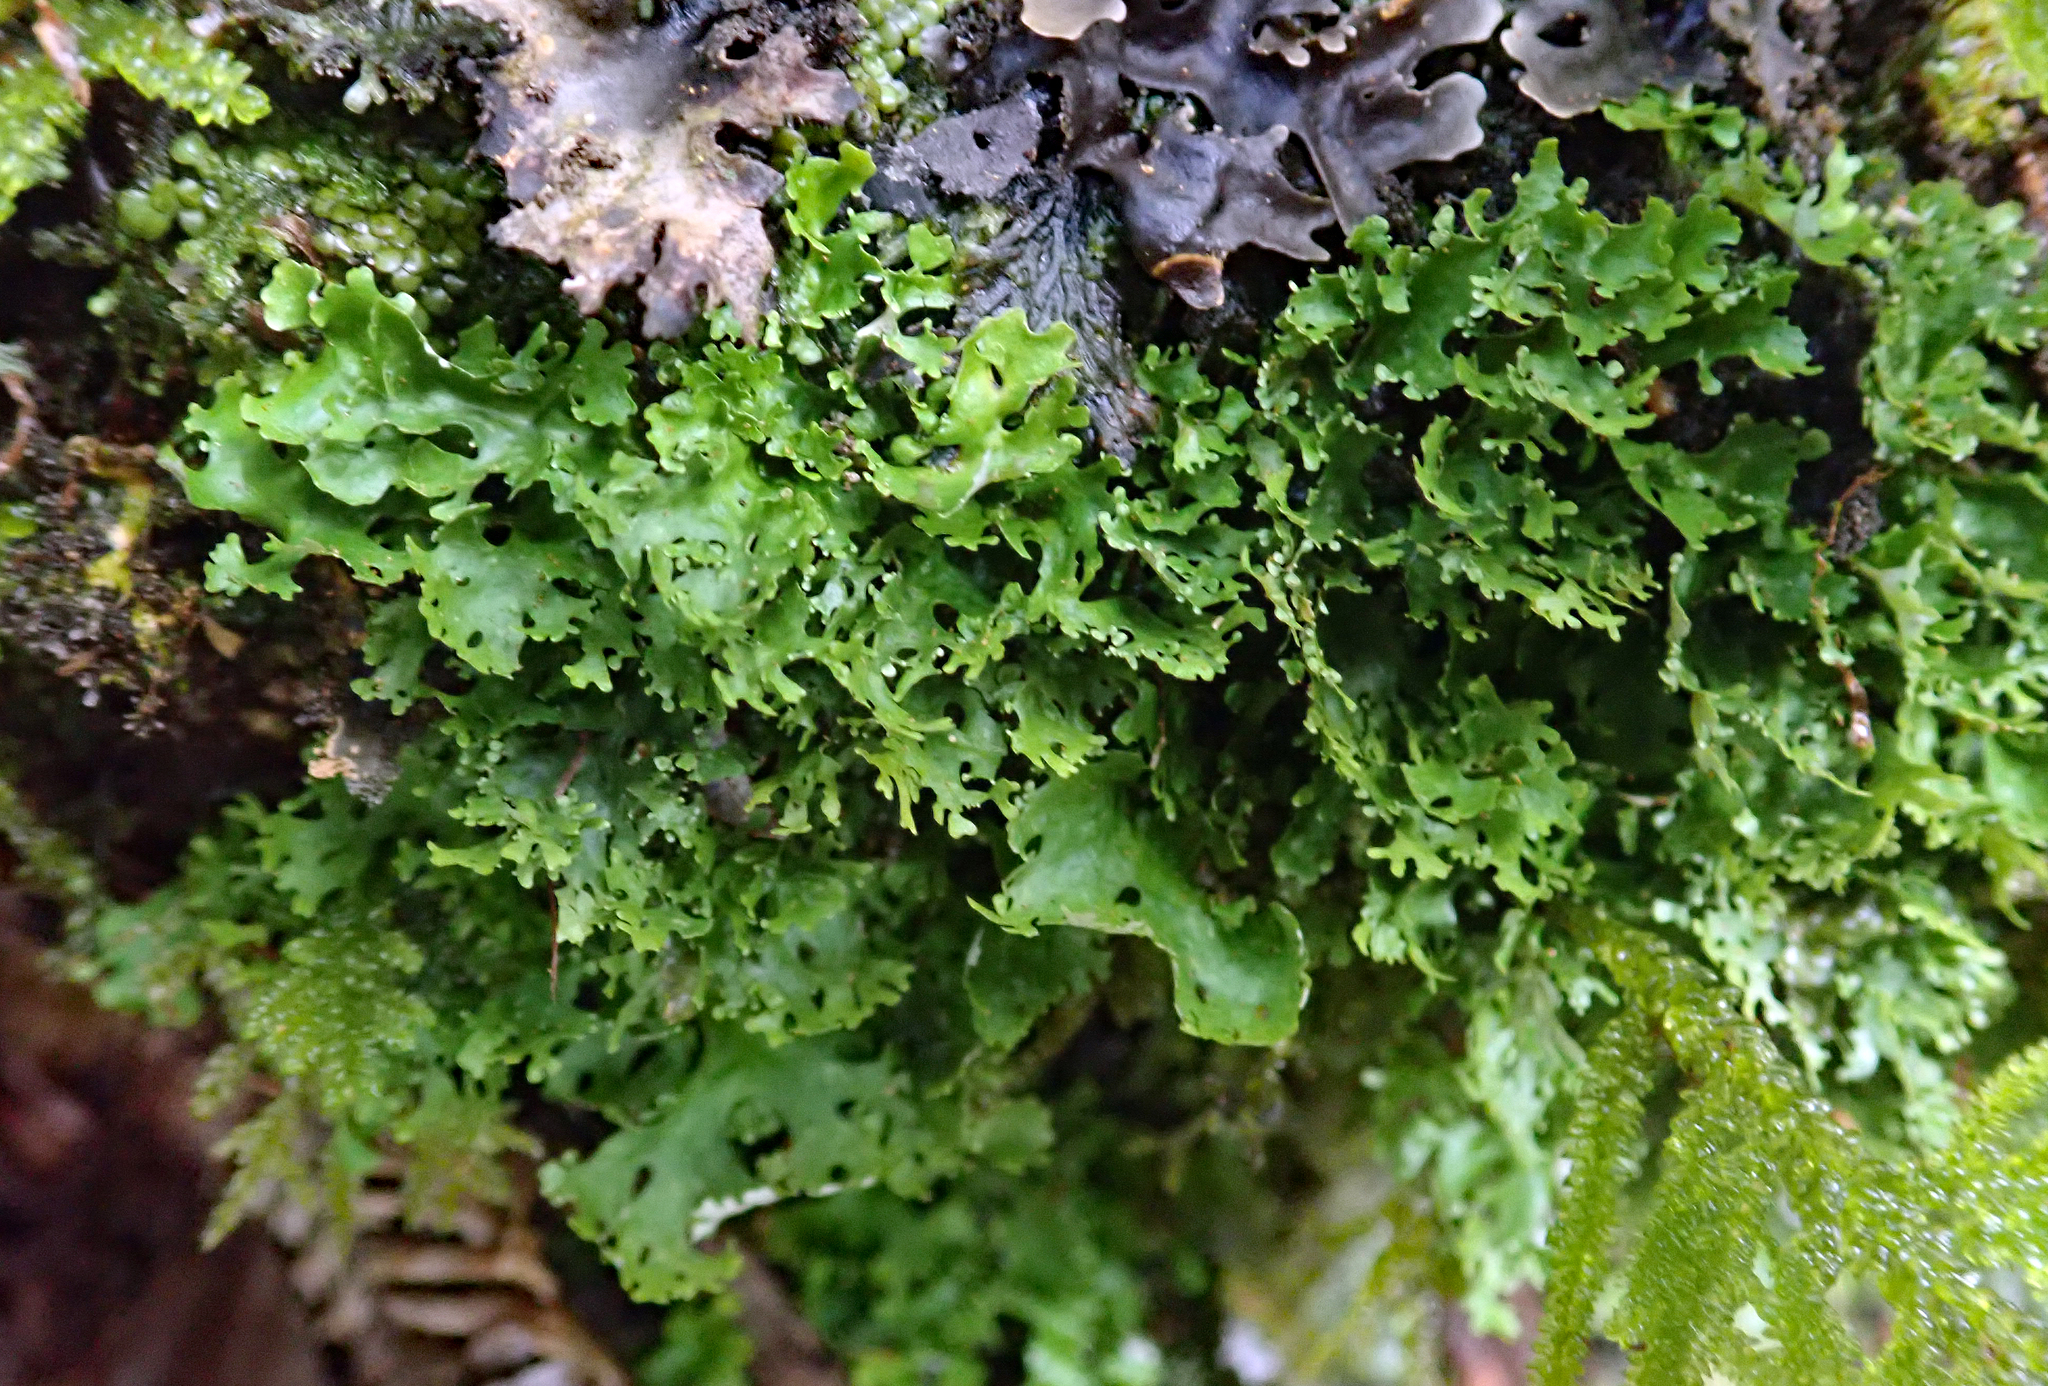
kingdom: Fungi
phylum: Ascomycota
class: Lecanoromycetes
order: Peltigerales
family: Lobariaceae
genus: Sticta
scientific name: Sticta
